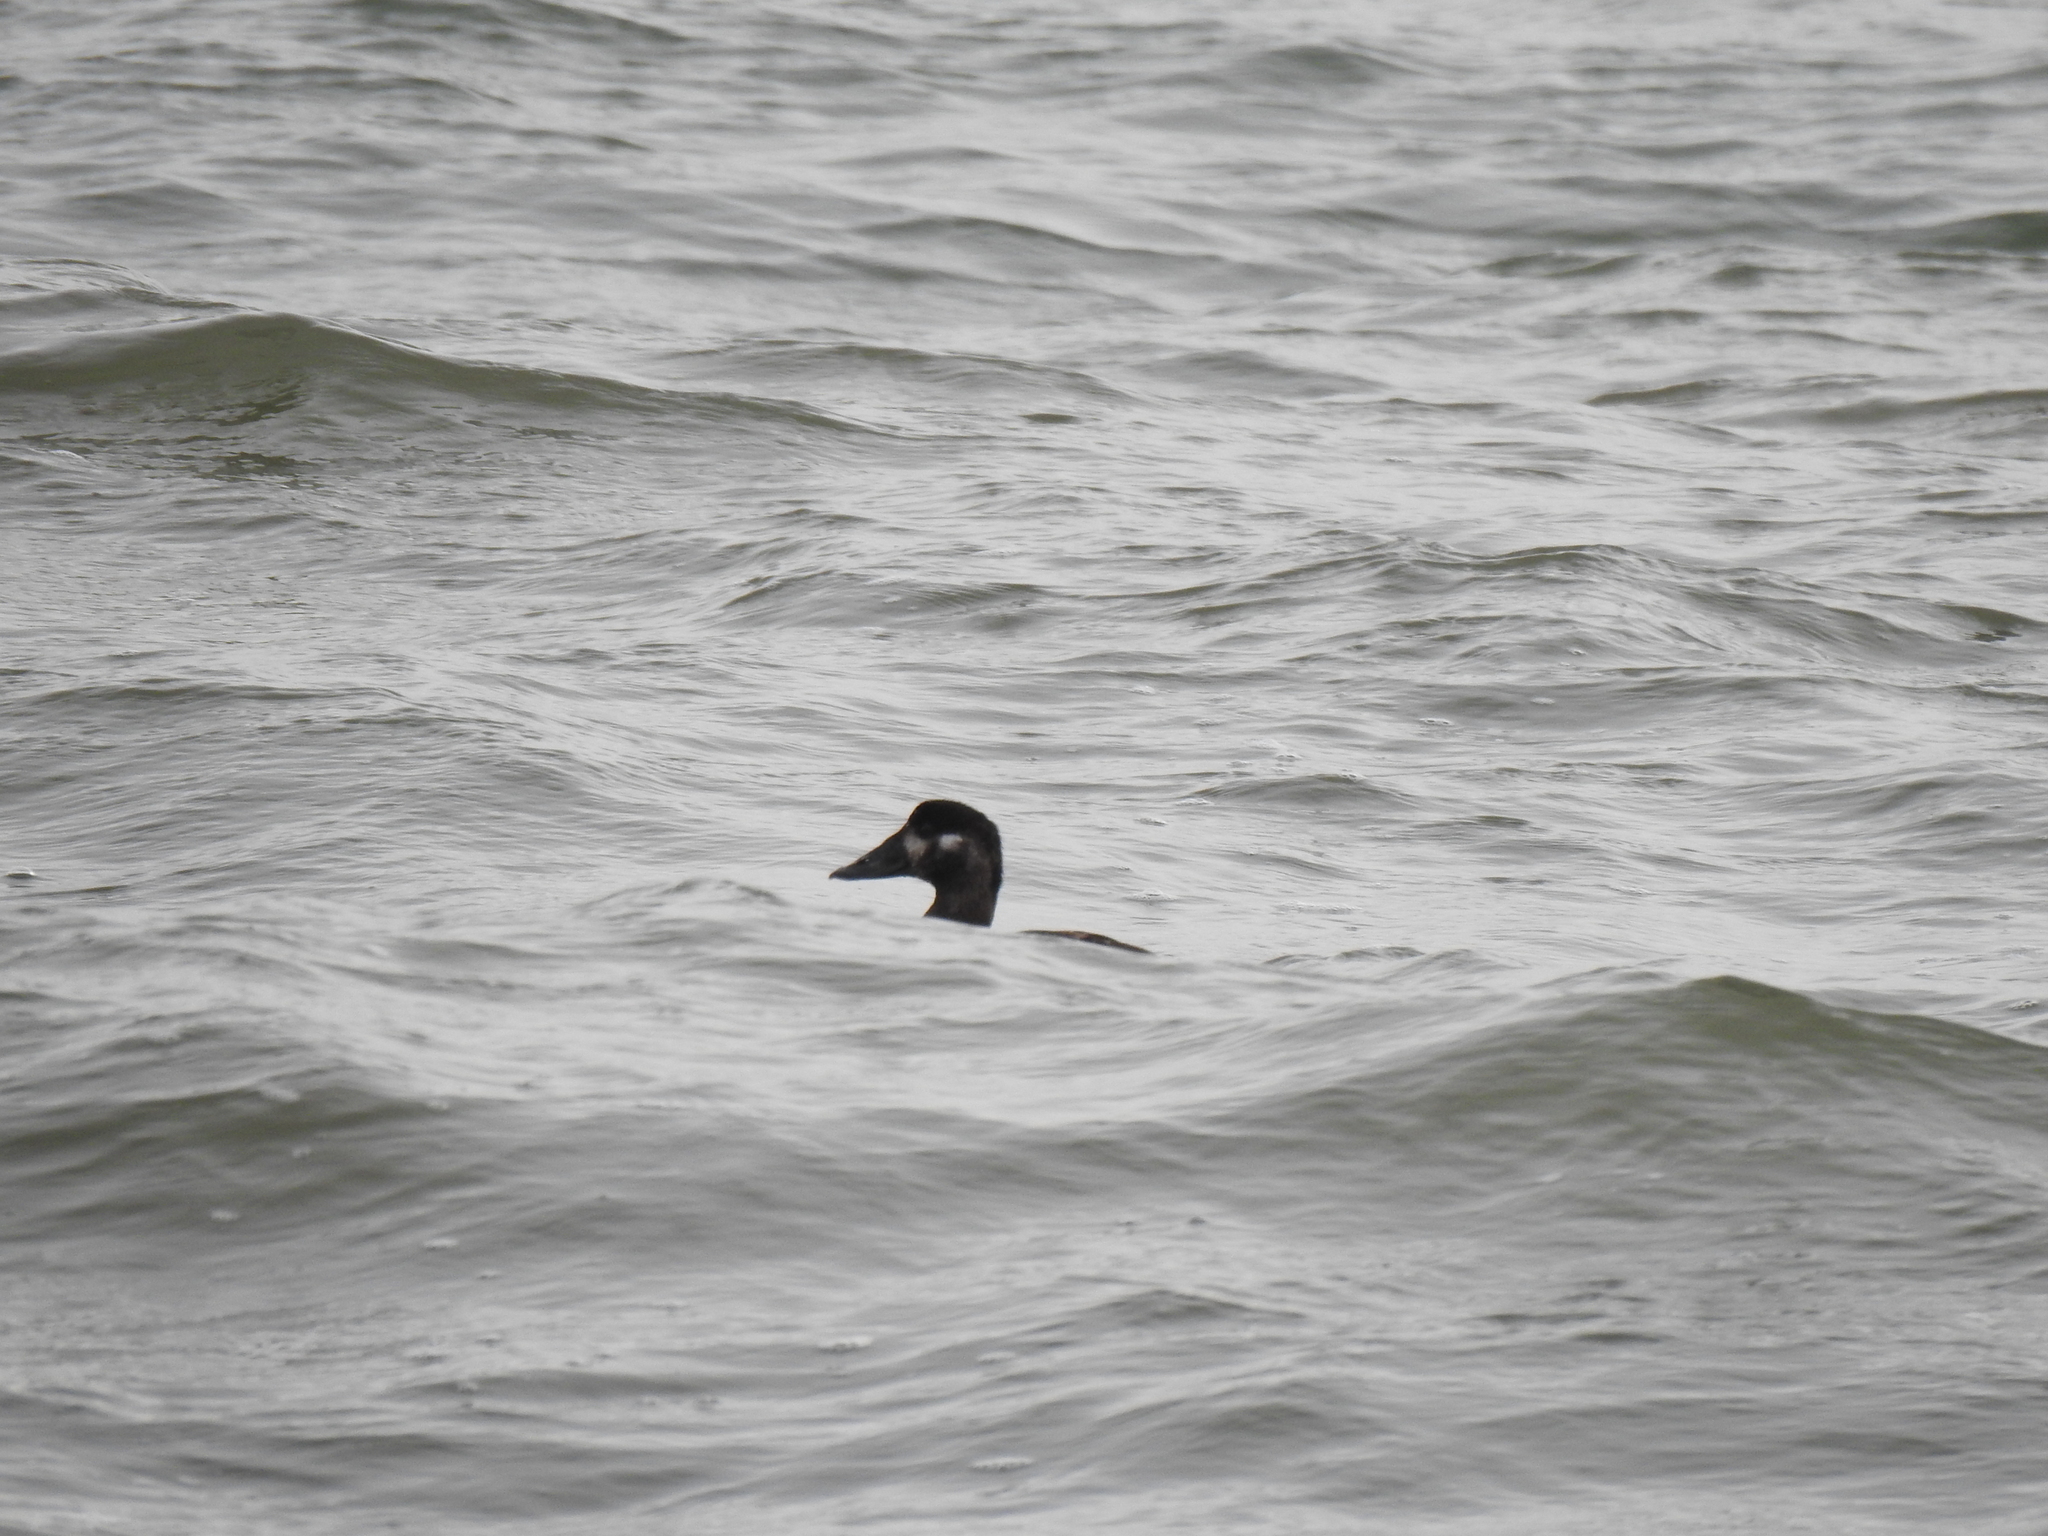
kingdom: Animalia
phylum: Chordata
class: Aves
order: Anseriformes
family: Anatidae
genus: Melanitta
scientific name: Melanitta perspicillata
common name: Surf scoter
